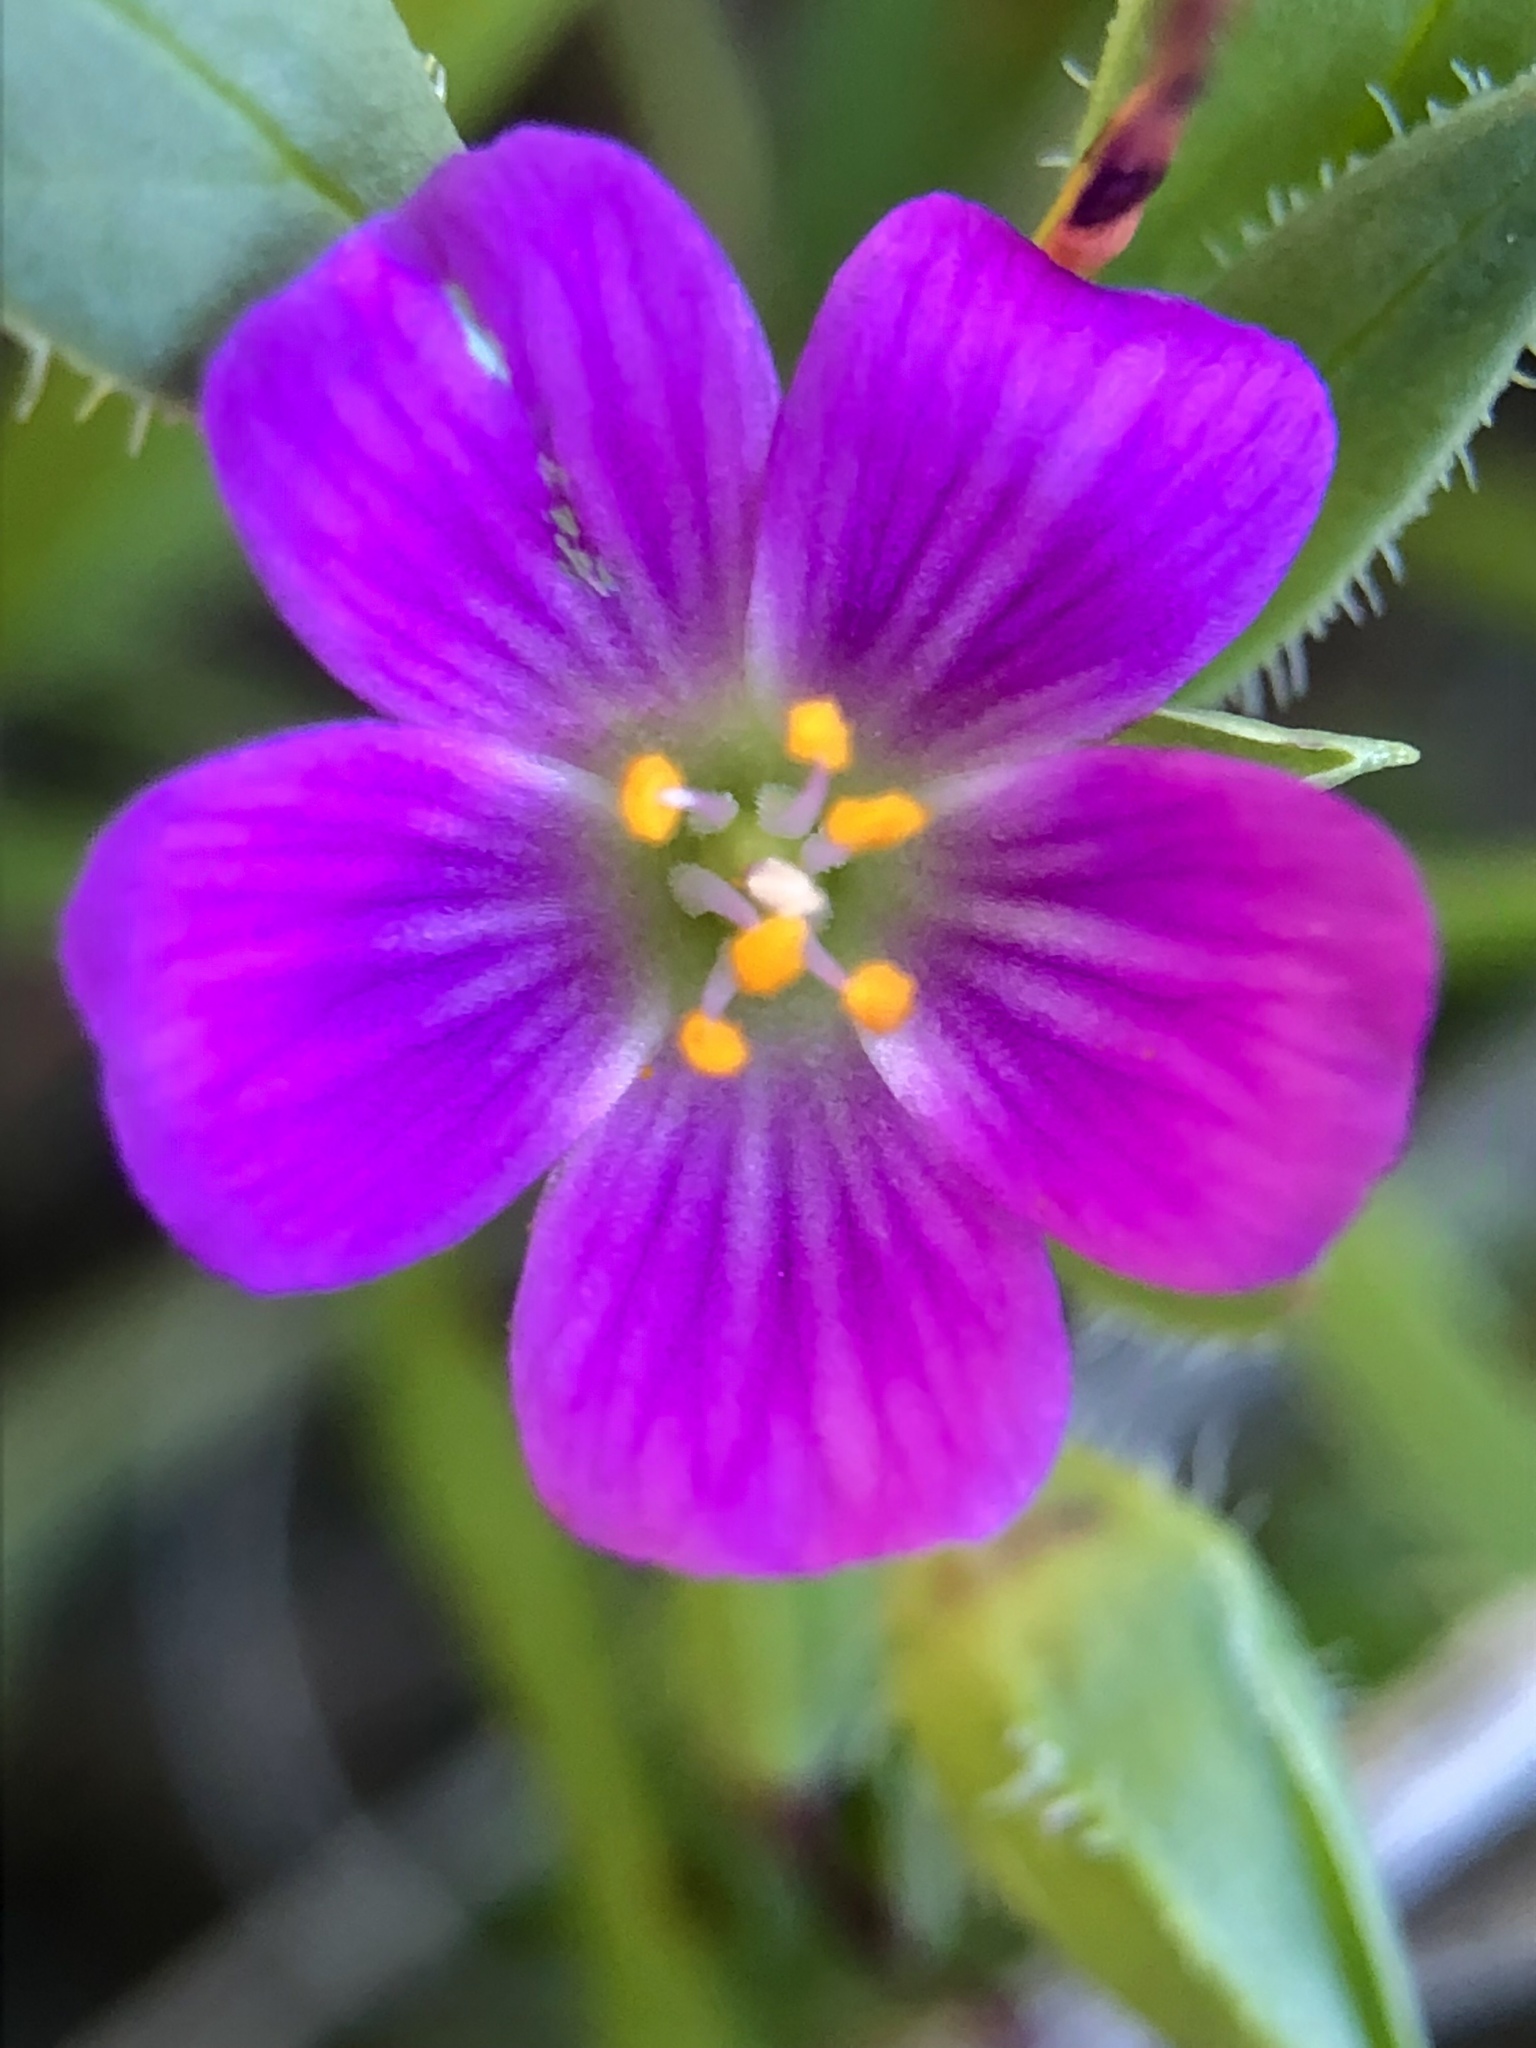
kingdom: Plantae
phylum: Tracheophyta
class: Magnoliopsida
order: Caryophyllales
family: Montiaceae
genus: Calandrinia
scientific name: Calandrinia menziesii
